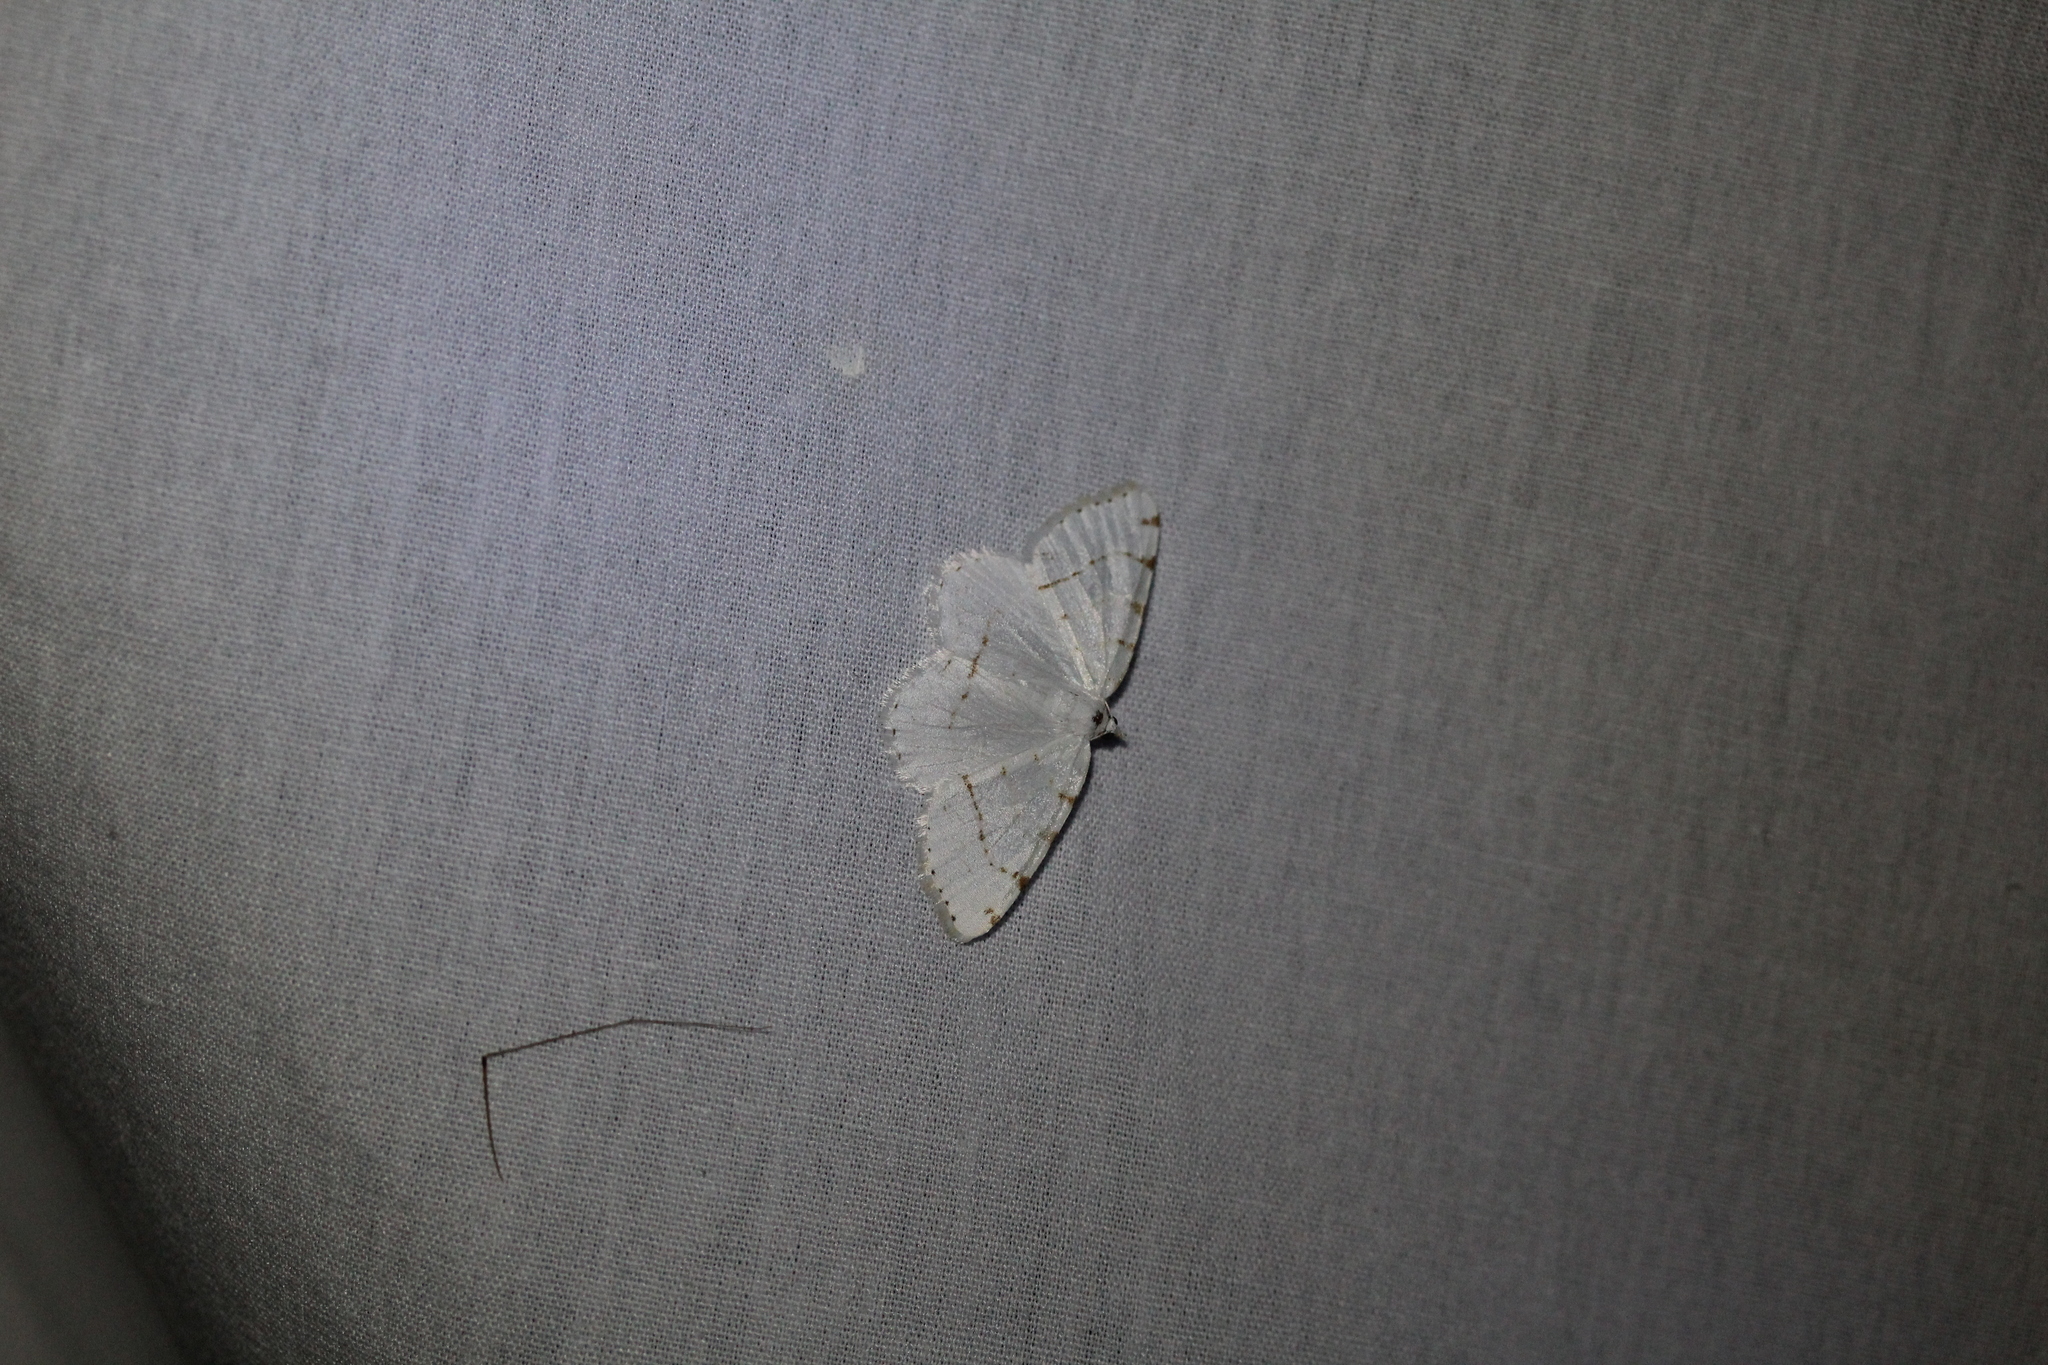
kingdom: Animalia
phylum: Arthropoda
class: Insecta
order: Lepidoptera
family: Geometridae
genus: Macaria
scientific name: Macaria pustularia
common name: Lesser maple spanworm moth
